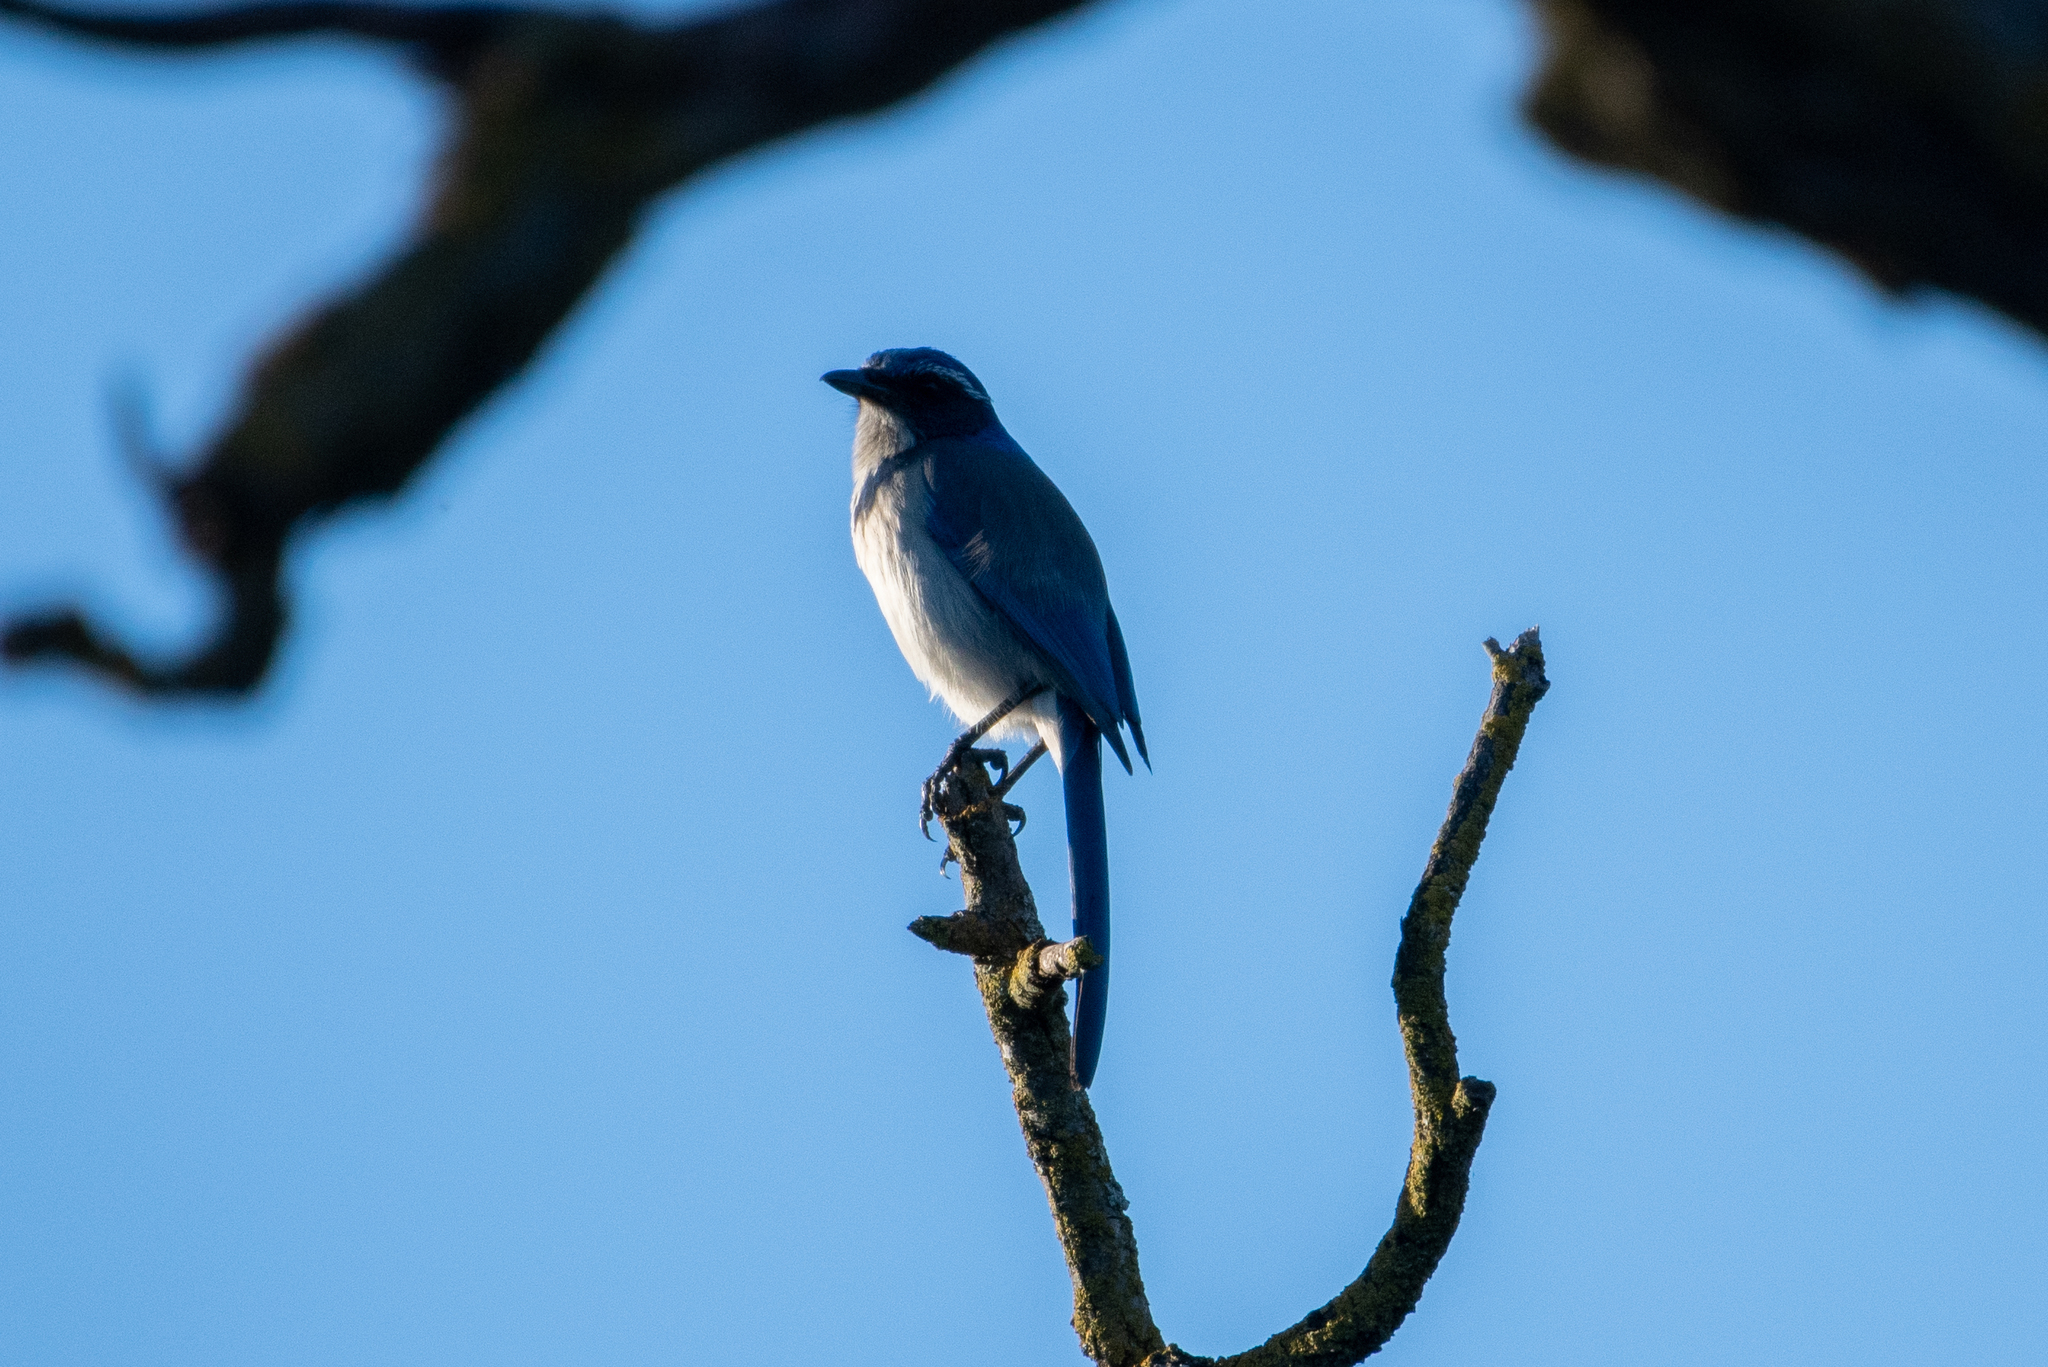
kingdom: Animalia
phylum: Chordata
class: Aves
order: Passeriformes
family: Corvidae
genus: Aphelocoma
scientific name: Aphelocoma californica
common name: California scrub-jay
